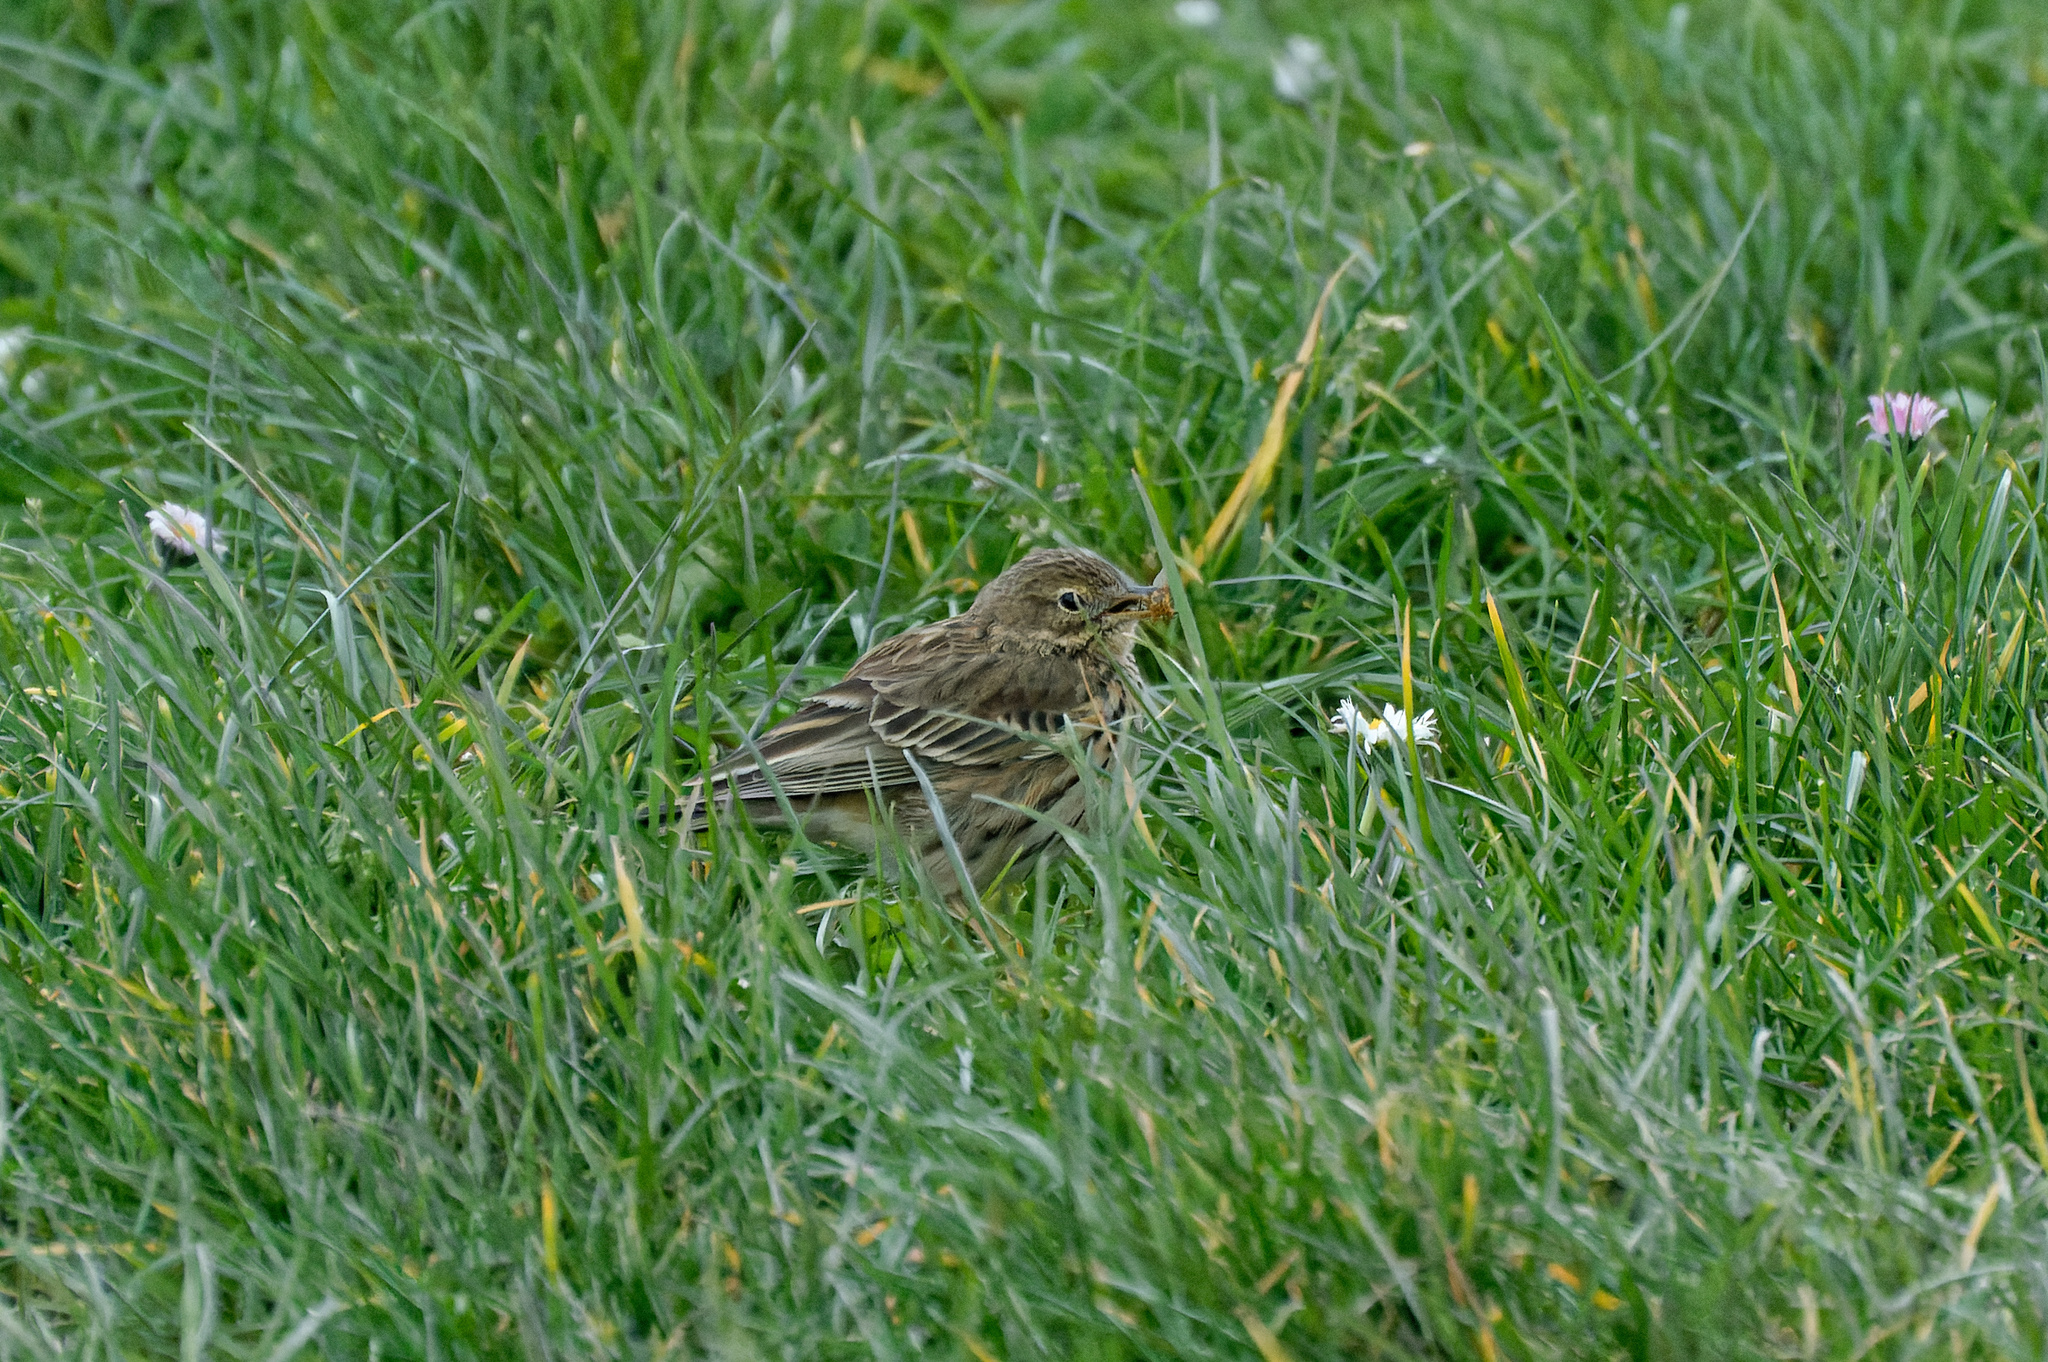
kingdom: Animalia
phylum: Chordata
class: Aves
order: Passeriformes
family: Motacillidae
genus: Anthus
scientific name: Anthus pratensis
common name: Meadow pipit
